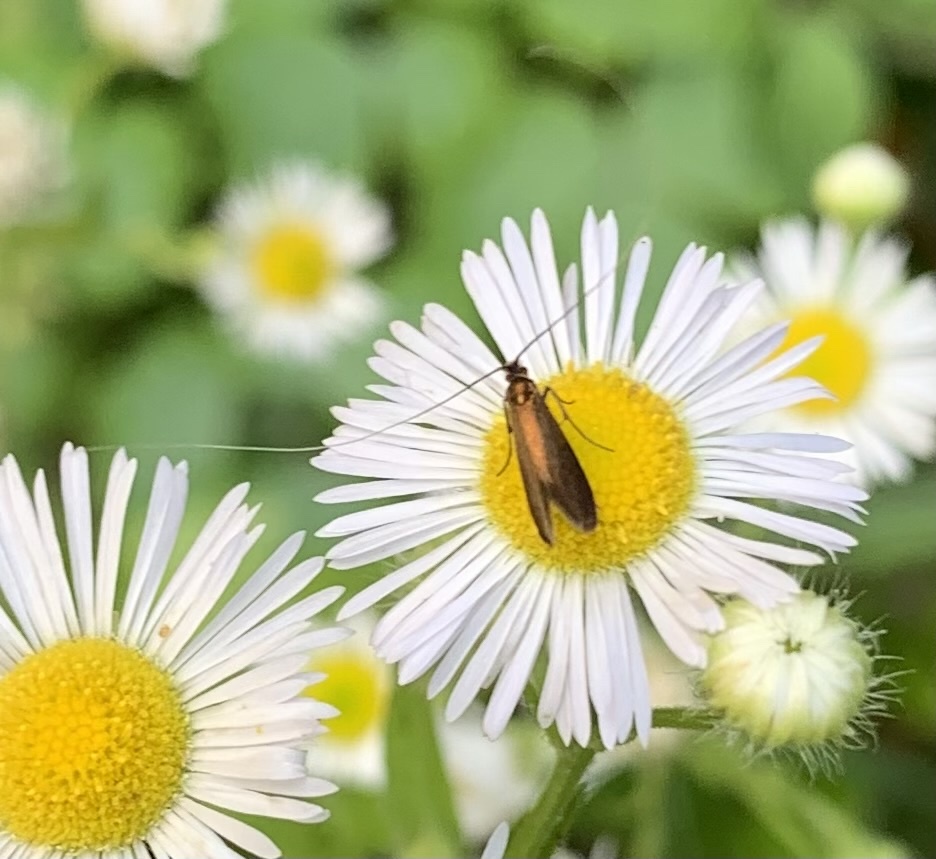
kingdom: Animalia
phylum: Arthropoda
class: Insecta
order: Lepidoptera
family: Adelidae
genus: Adela
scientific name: Adela violella
